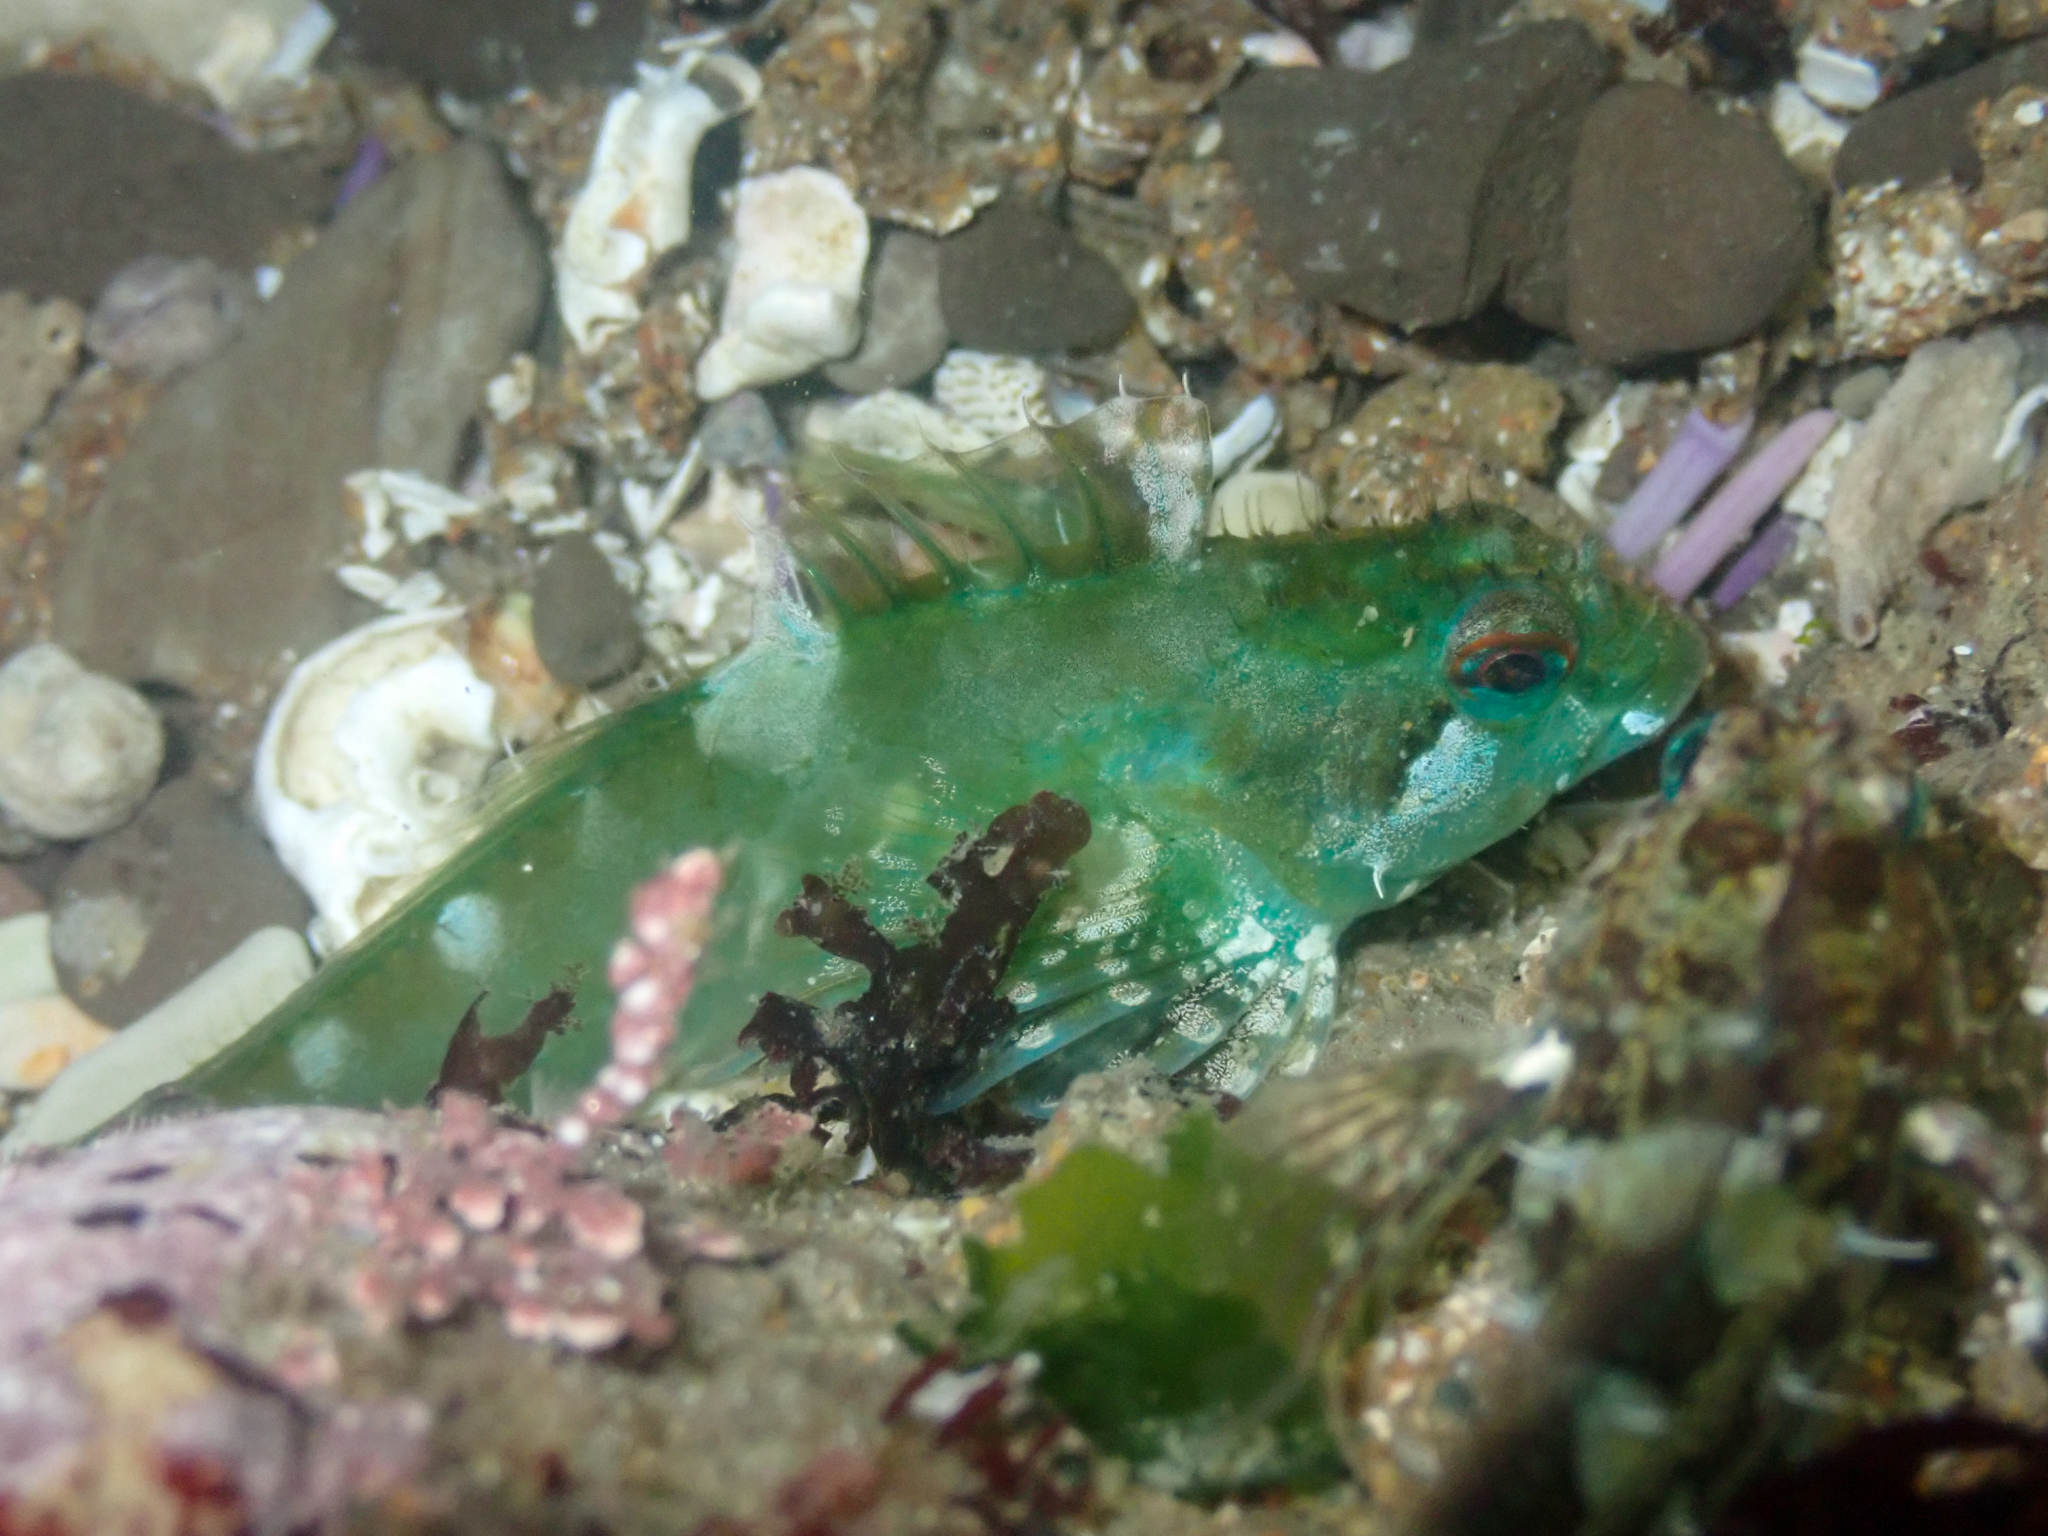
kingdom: Animalia
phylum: Chordata
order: Scorpaeniformes
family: Cottidae
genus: Oligocottus
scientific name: Oligocottus snyderi
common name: Fluffy sculpin
